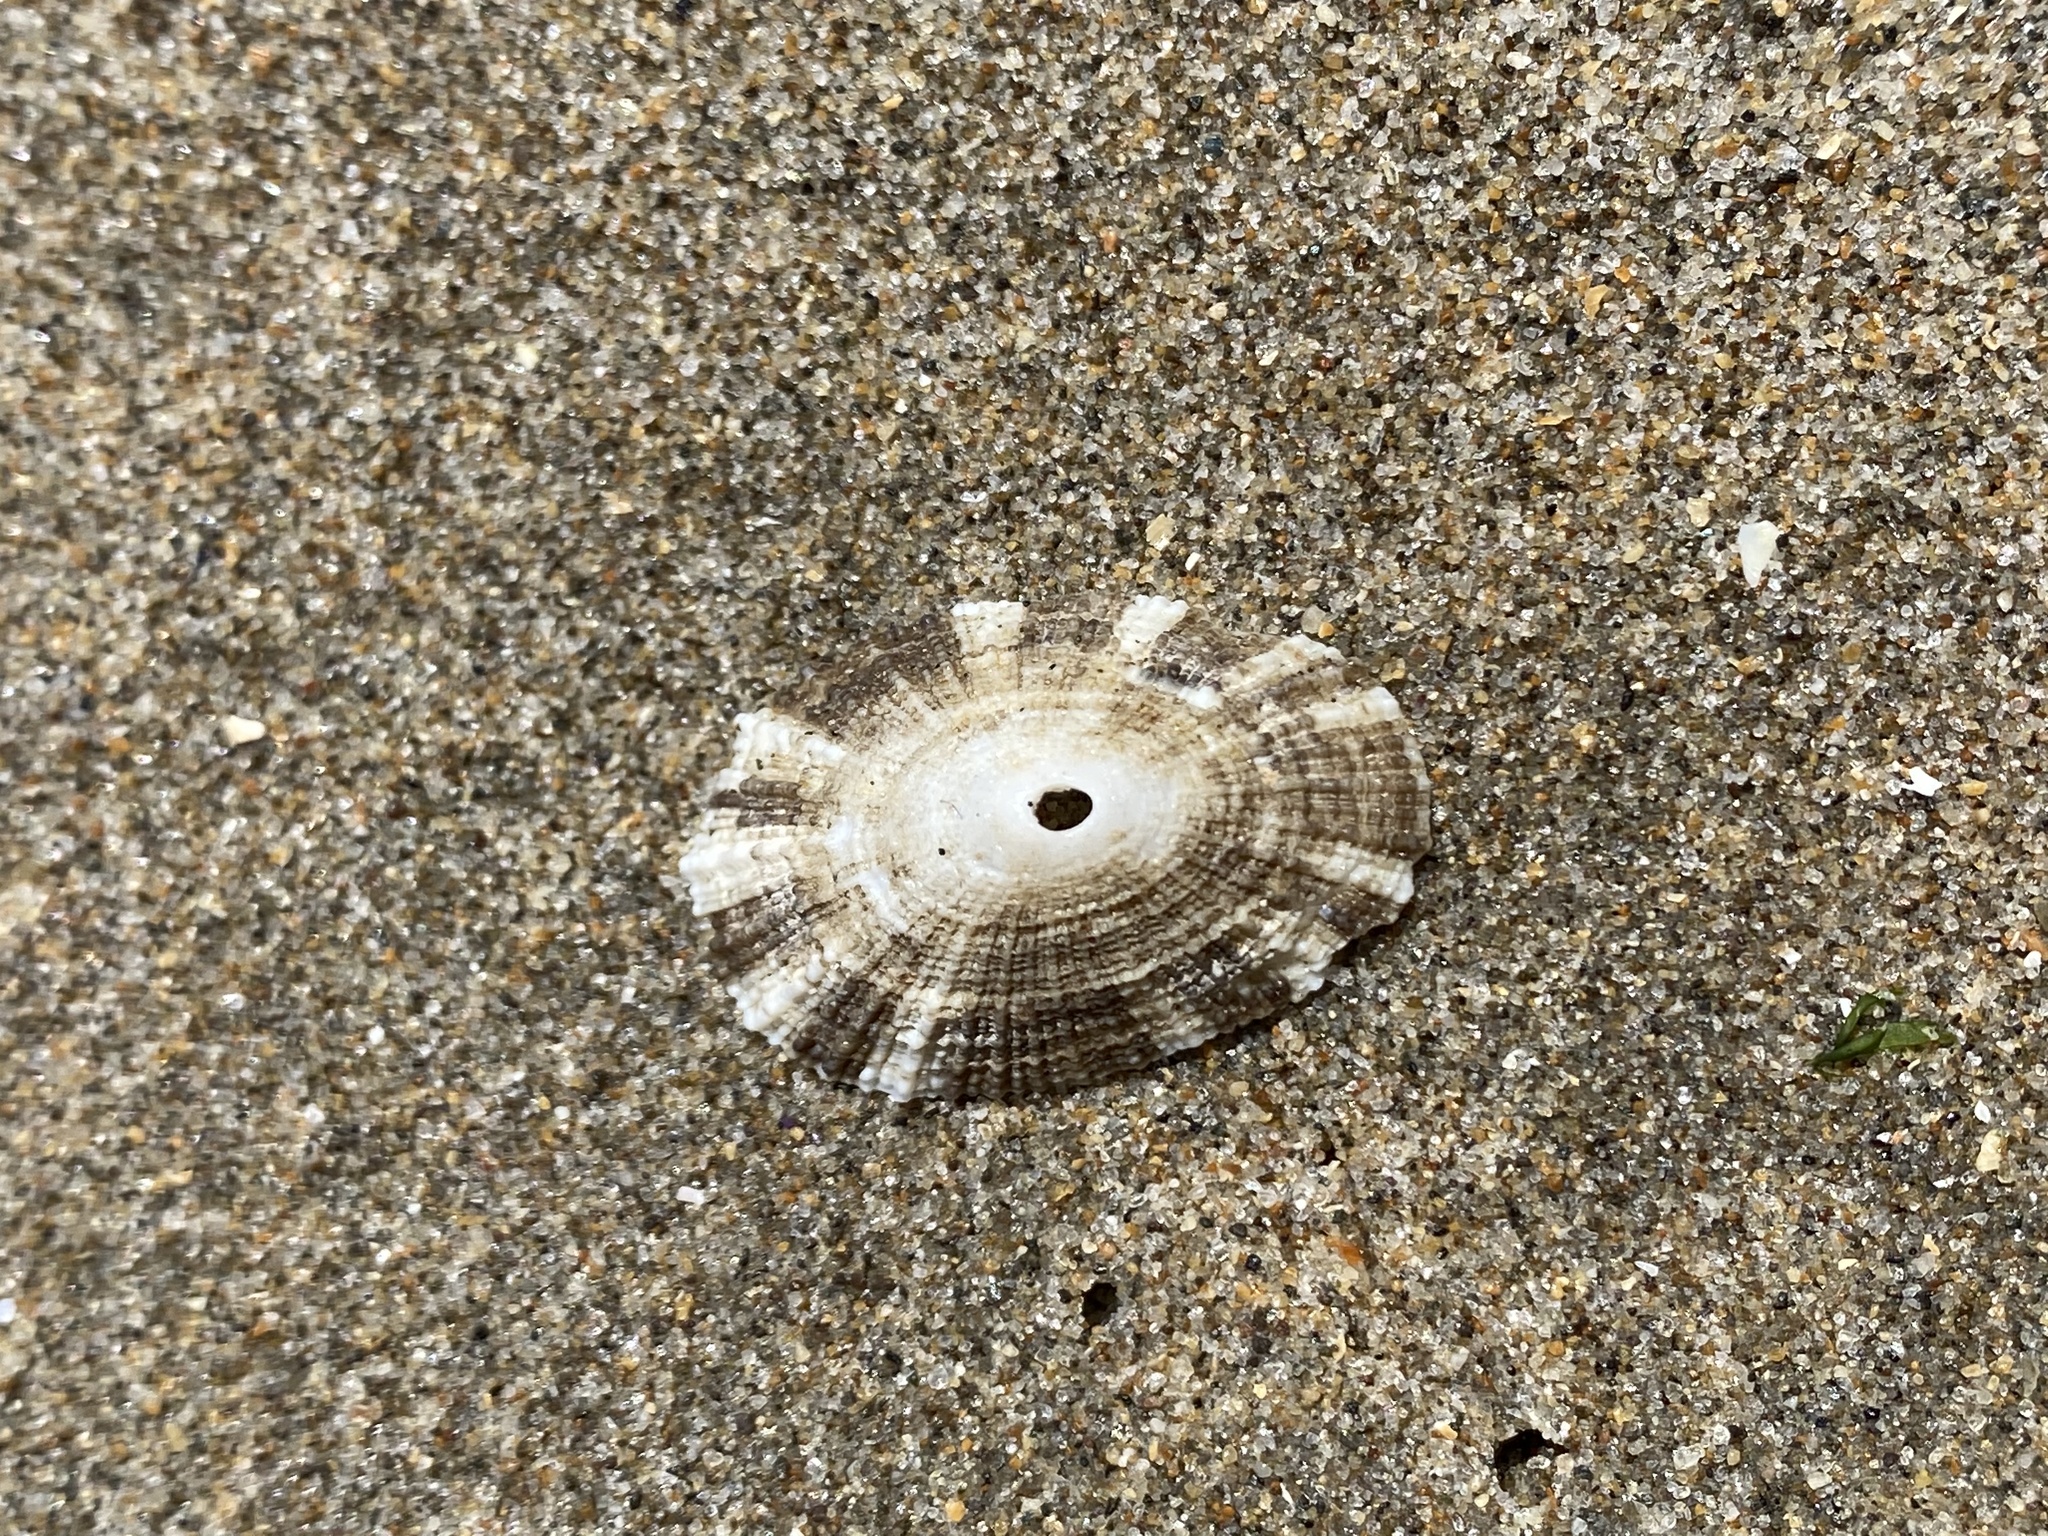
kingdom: Animalia
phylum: Mollusca
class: Gastropoda
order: Lepetellida
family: Fissurellidae
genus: Diodora
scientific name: Diodora aspera
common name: Rough keyhole limpet
